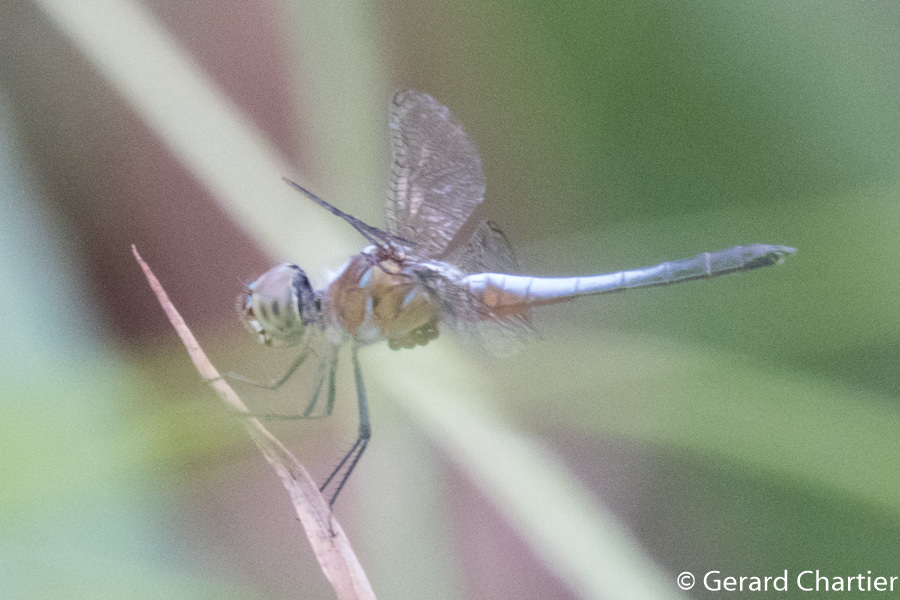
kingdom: Animalia
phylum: Arthropoda
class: Insecta
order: Odonata
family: Libellulidae
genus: Brachydiplax
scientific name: Brachydiplax chalybea
